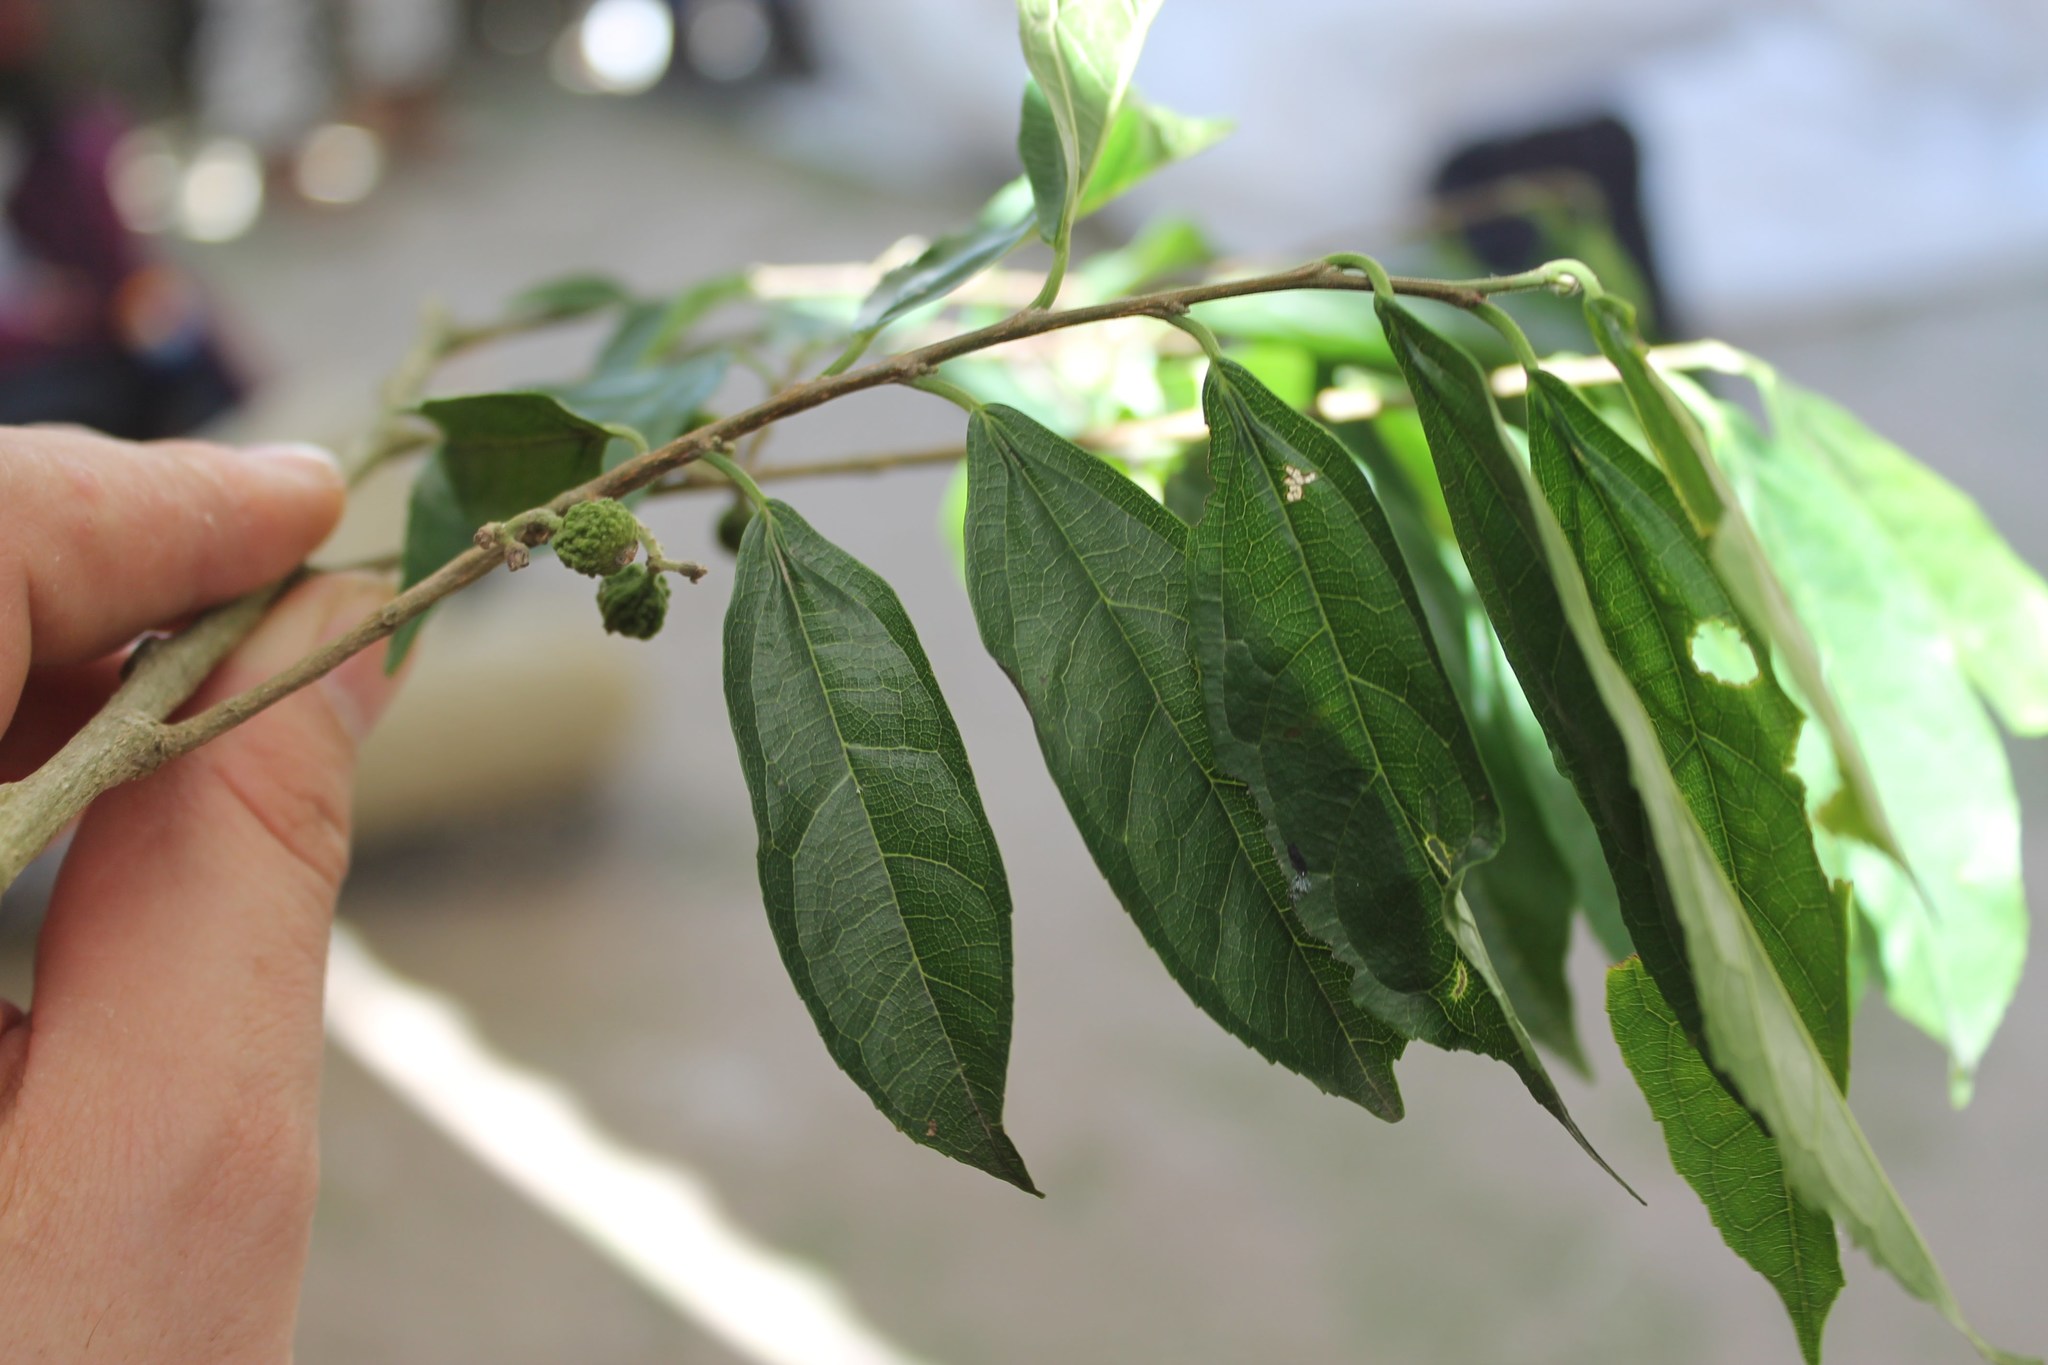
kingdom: Plantae
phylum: Tracheophyta
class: Magnoliopsida
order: Rosales
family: Moraceae
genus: Trophis
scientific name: Trophis racemosa
